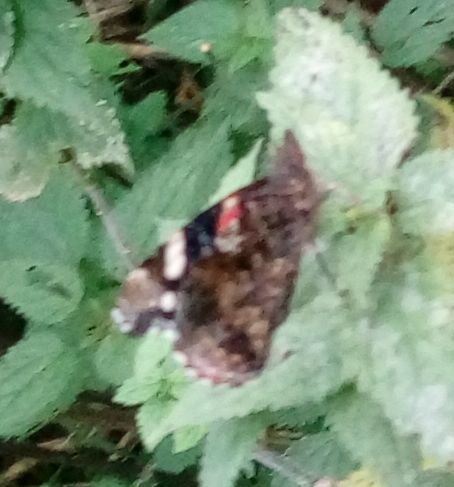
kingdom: Animalia
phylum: Arthropoda
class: Insecta
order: Lepidoptera
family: Nymphalidae
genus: Vanessa
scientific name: Vanessa atalanta
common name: Red admiral
